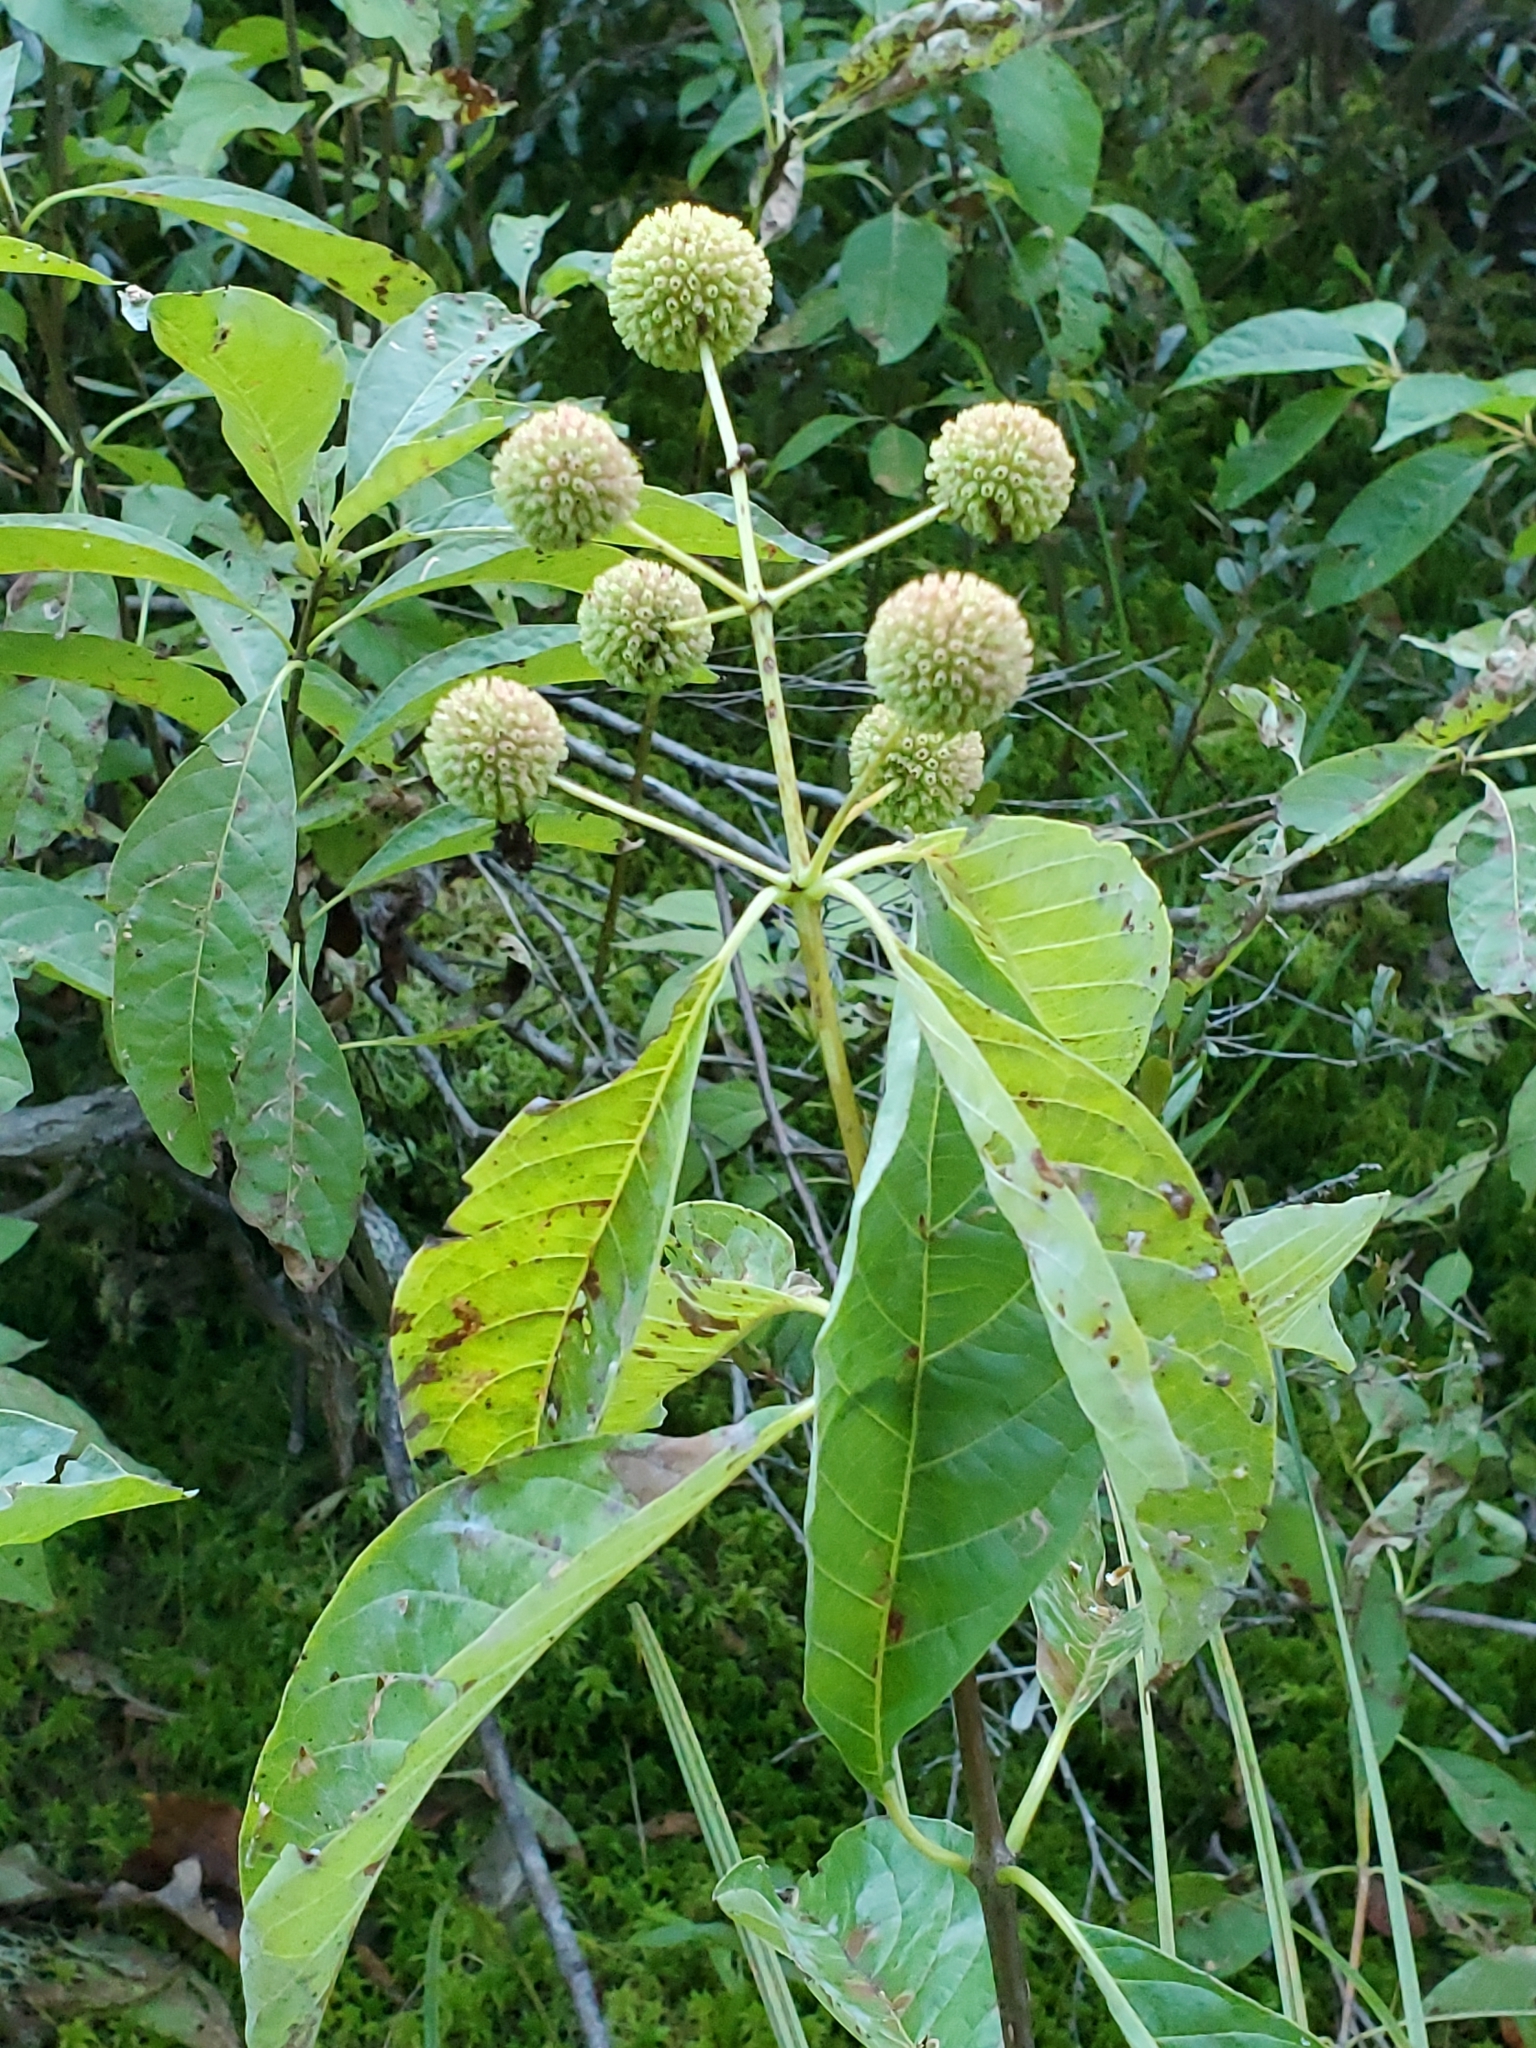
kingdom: Plantae
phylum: Tracheophyta
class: Magnoliopsida
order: Gentianales
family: Rubiaceae
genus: Cephalanthus
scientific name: Cephalanthus occidentalis
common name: Button-willow
